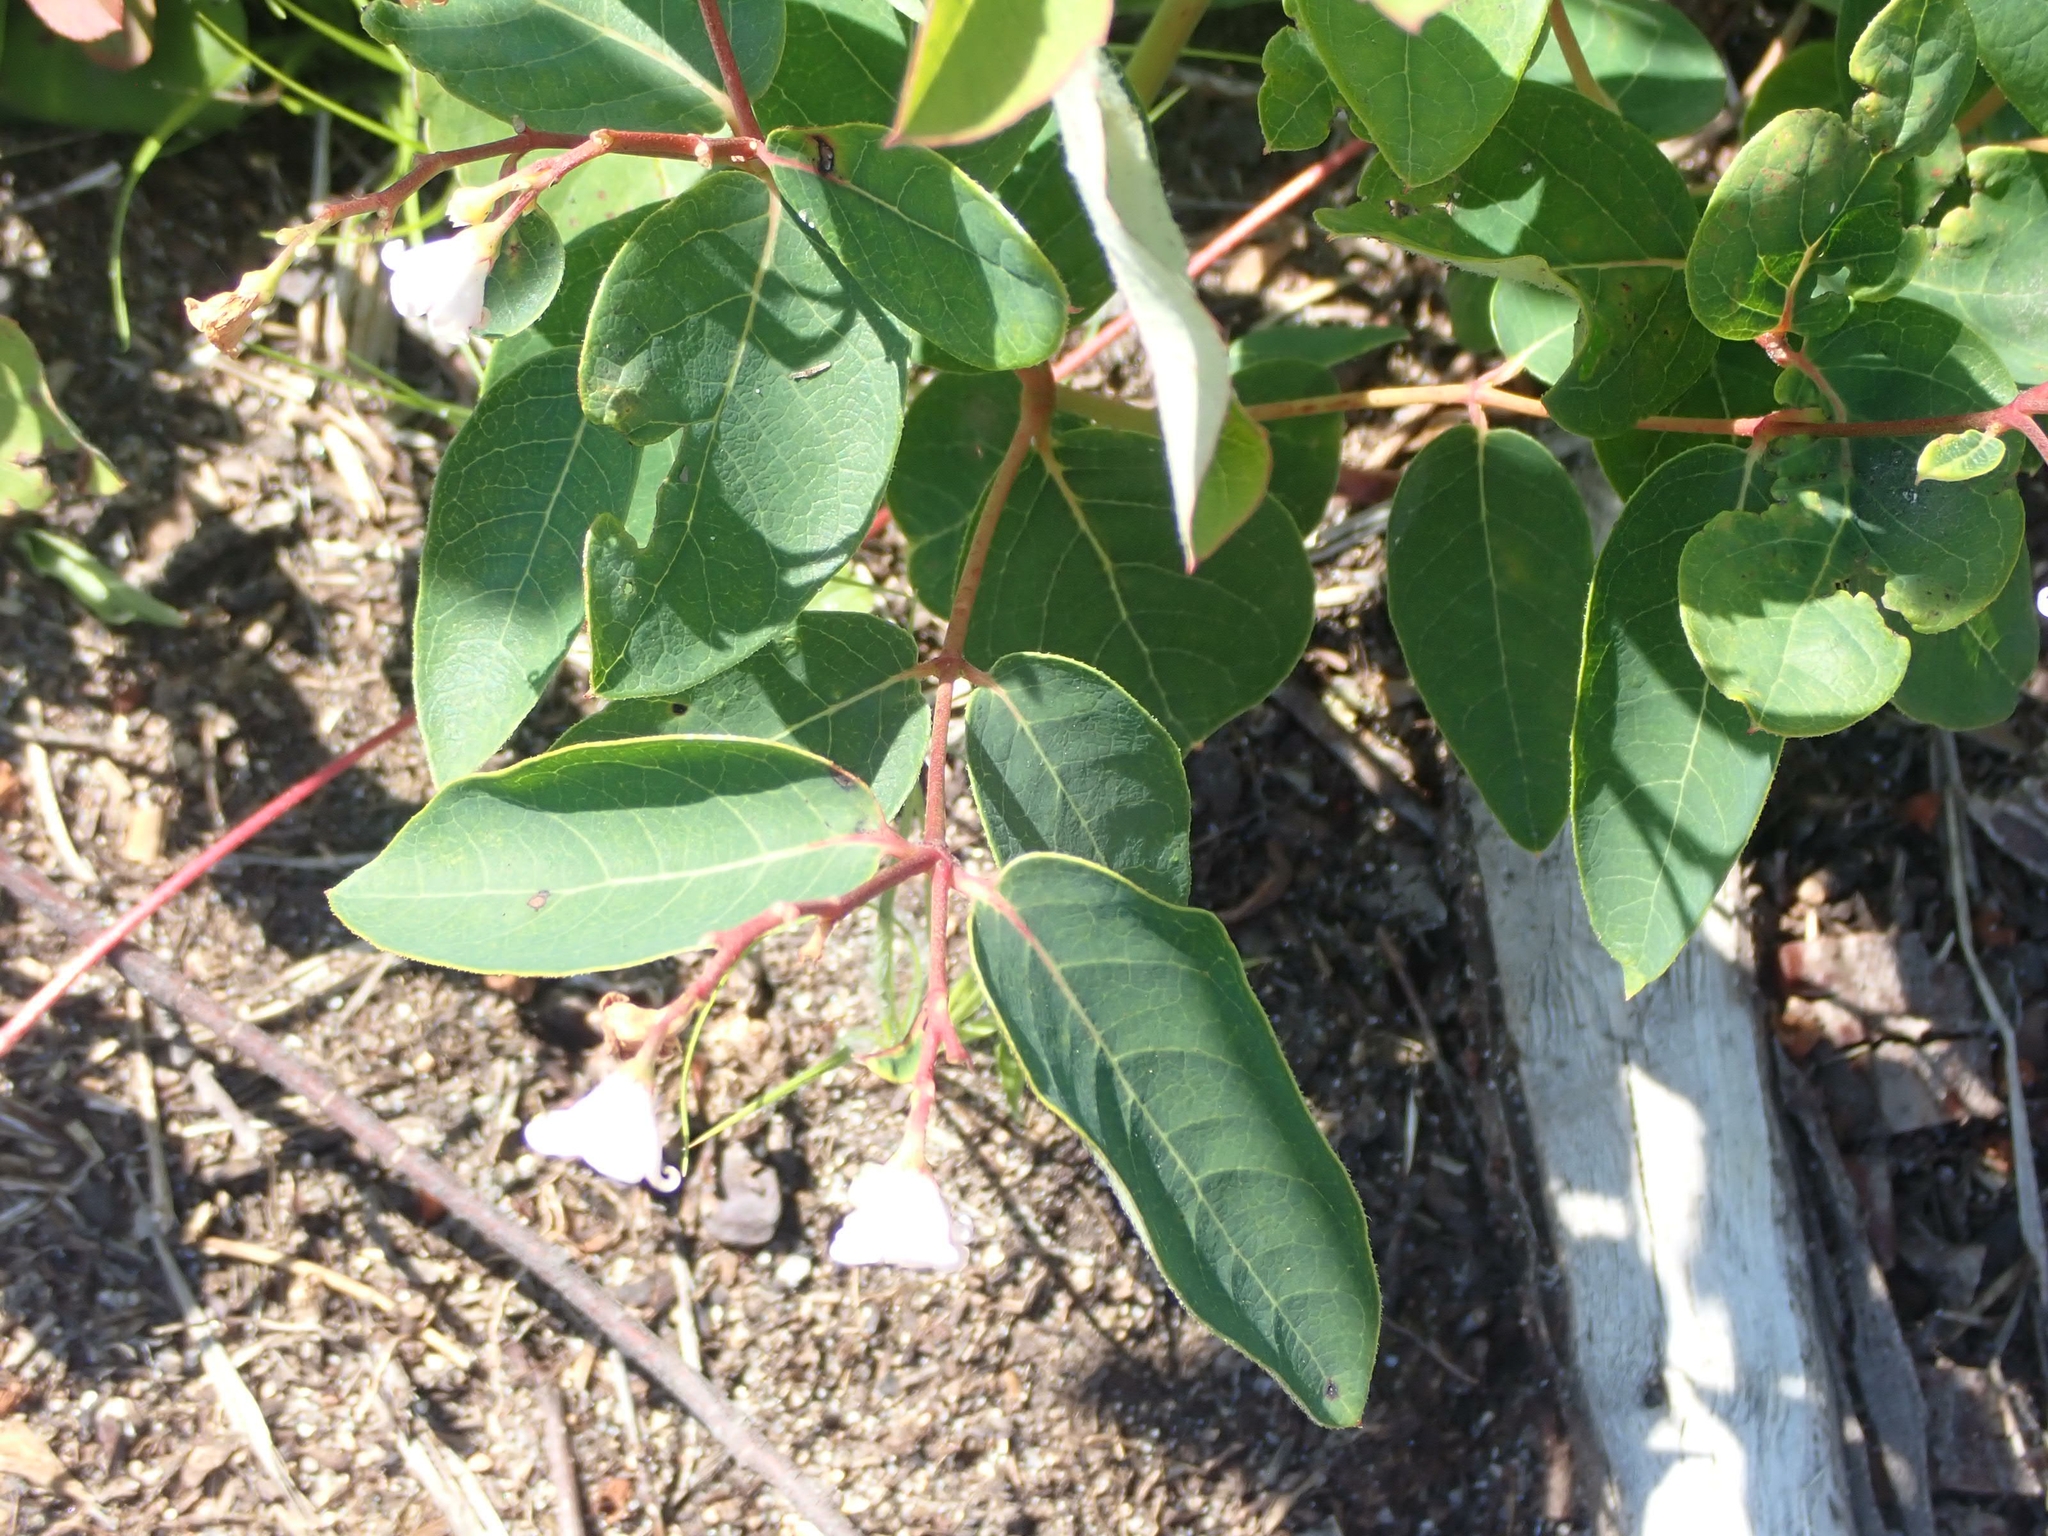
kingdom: Plantae
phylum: Tracheophyta
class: Magnoliopsida
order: Gentianales
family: Apocynaceae
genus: Apocynum
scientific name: Apocynum androsaemifolium
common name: Spreading dogbane
